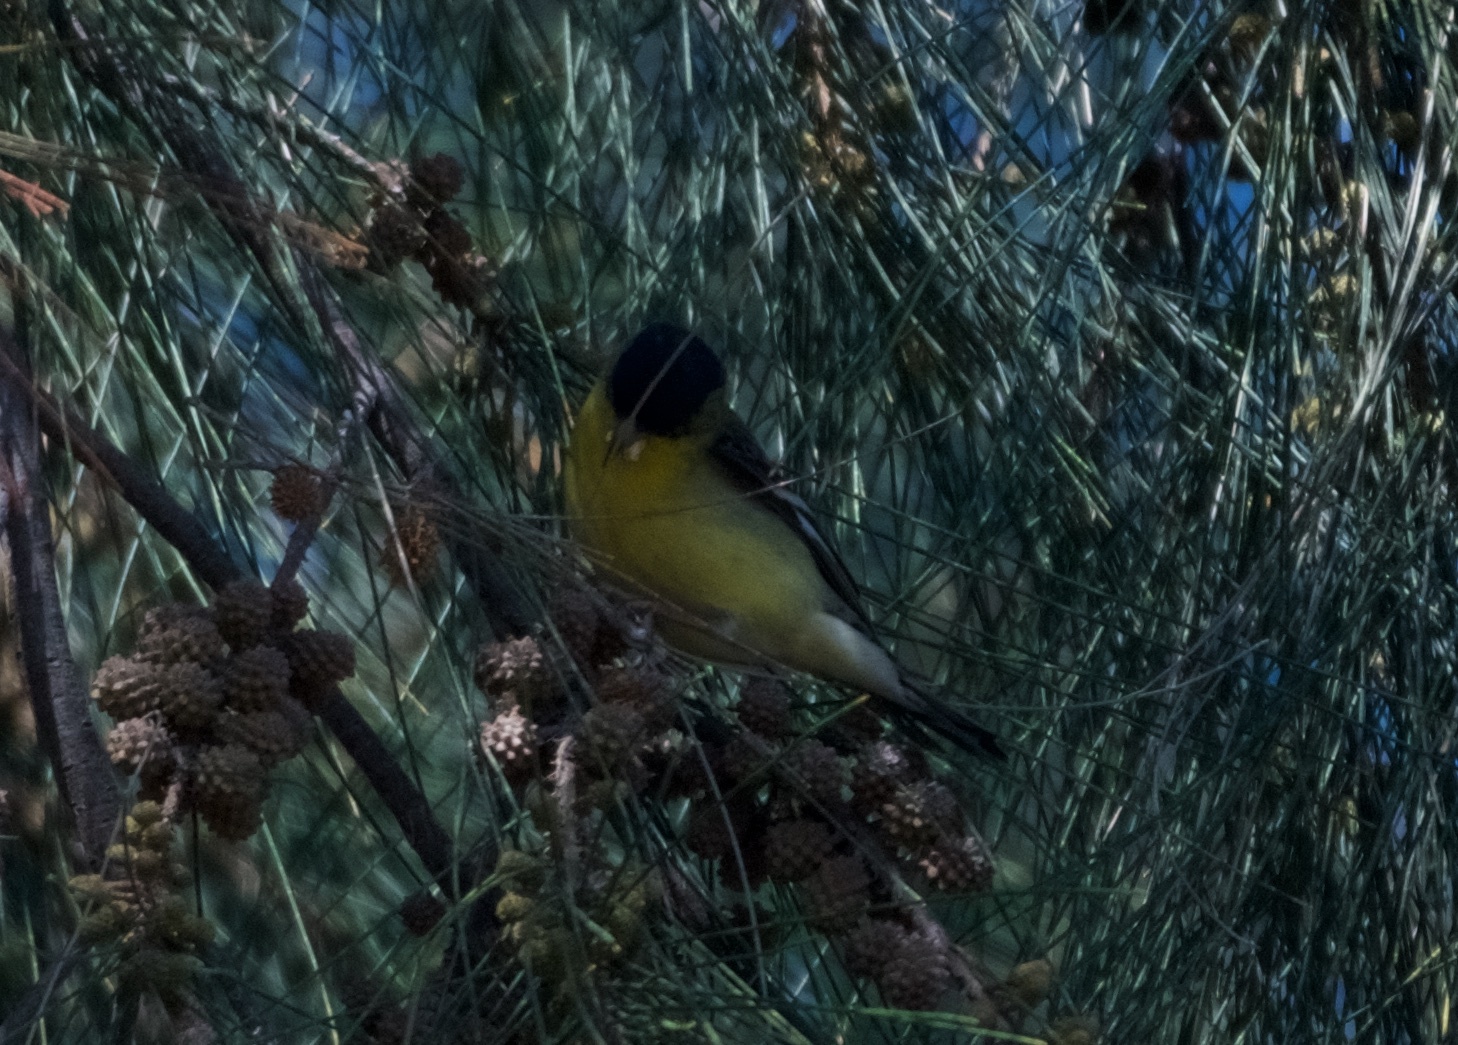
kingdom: Animalia
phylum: Chordata
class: Aves
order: Passeriformes
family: Fringillidae
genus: Spinus
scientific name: Spinus psaltria
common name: Lesser goldfinch
